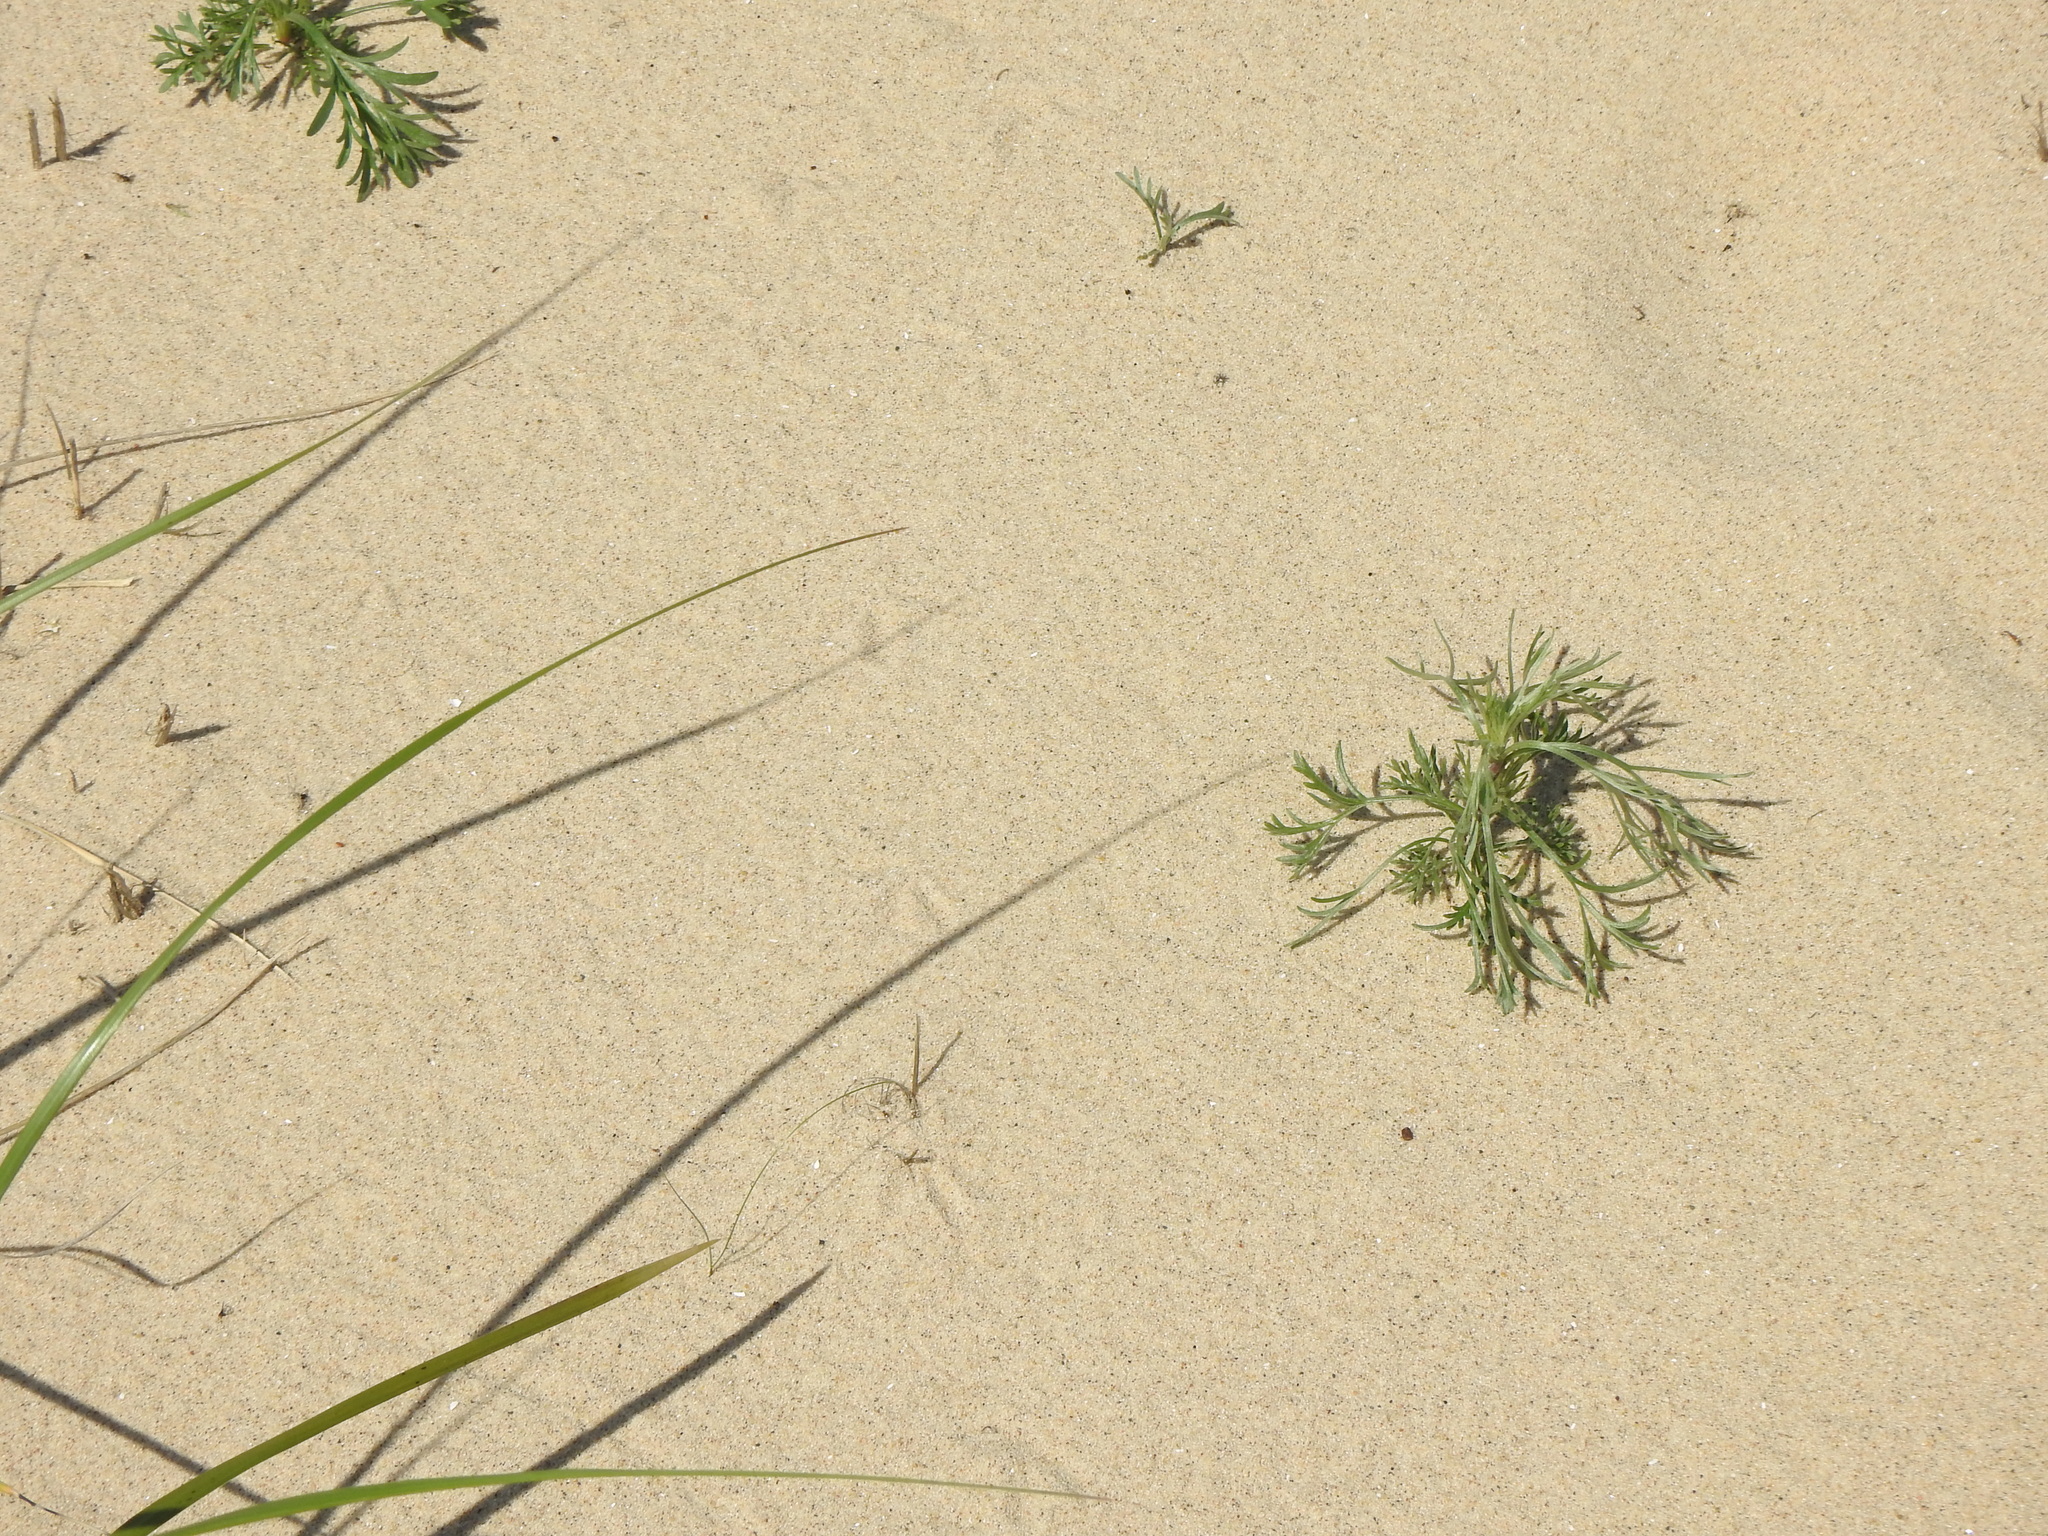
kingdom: Plantae
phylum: Tracheophyta
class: Magnoliopsida
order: Asterales
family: Asteraceae
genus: Artemisia
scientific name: Artemisia campestris
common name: Field wormwood
